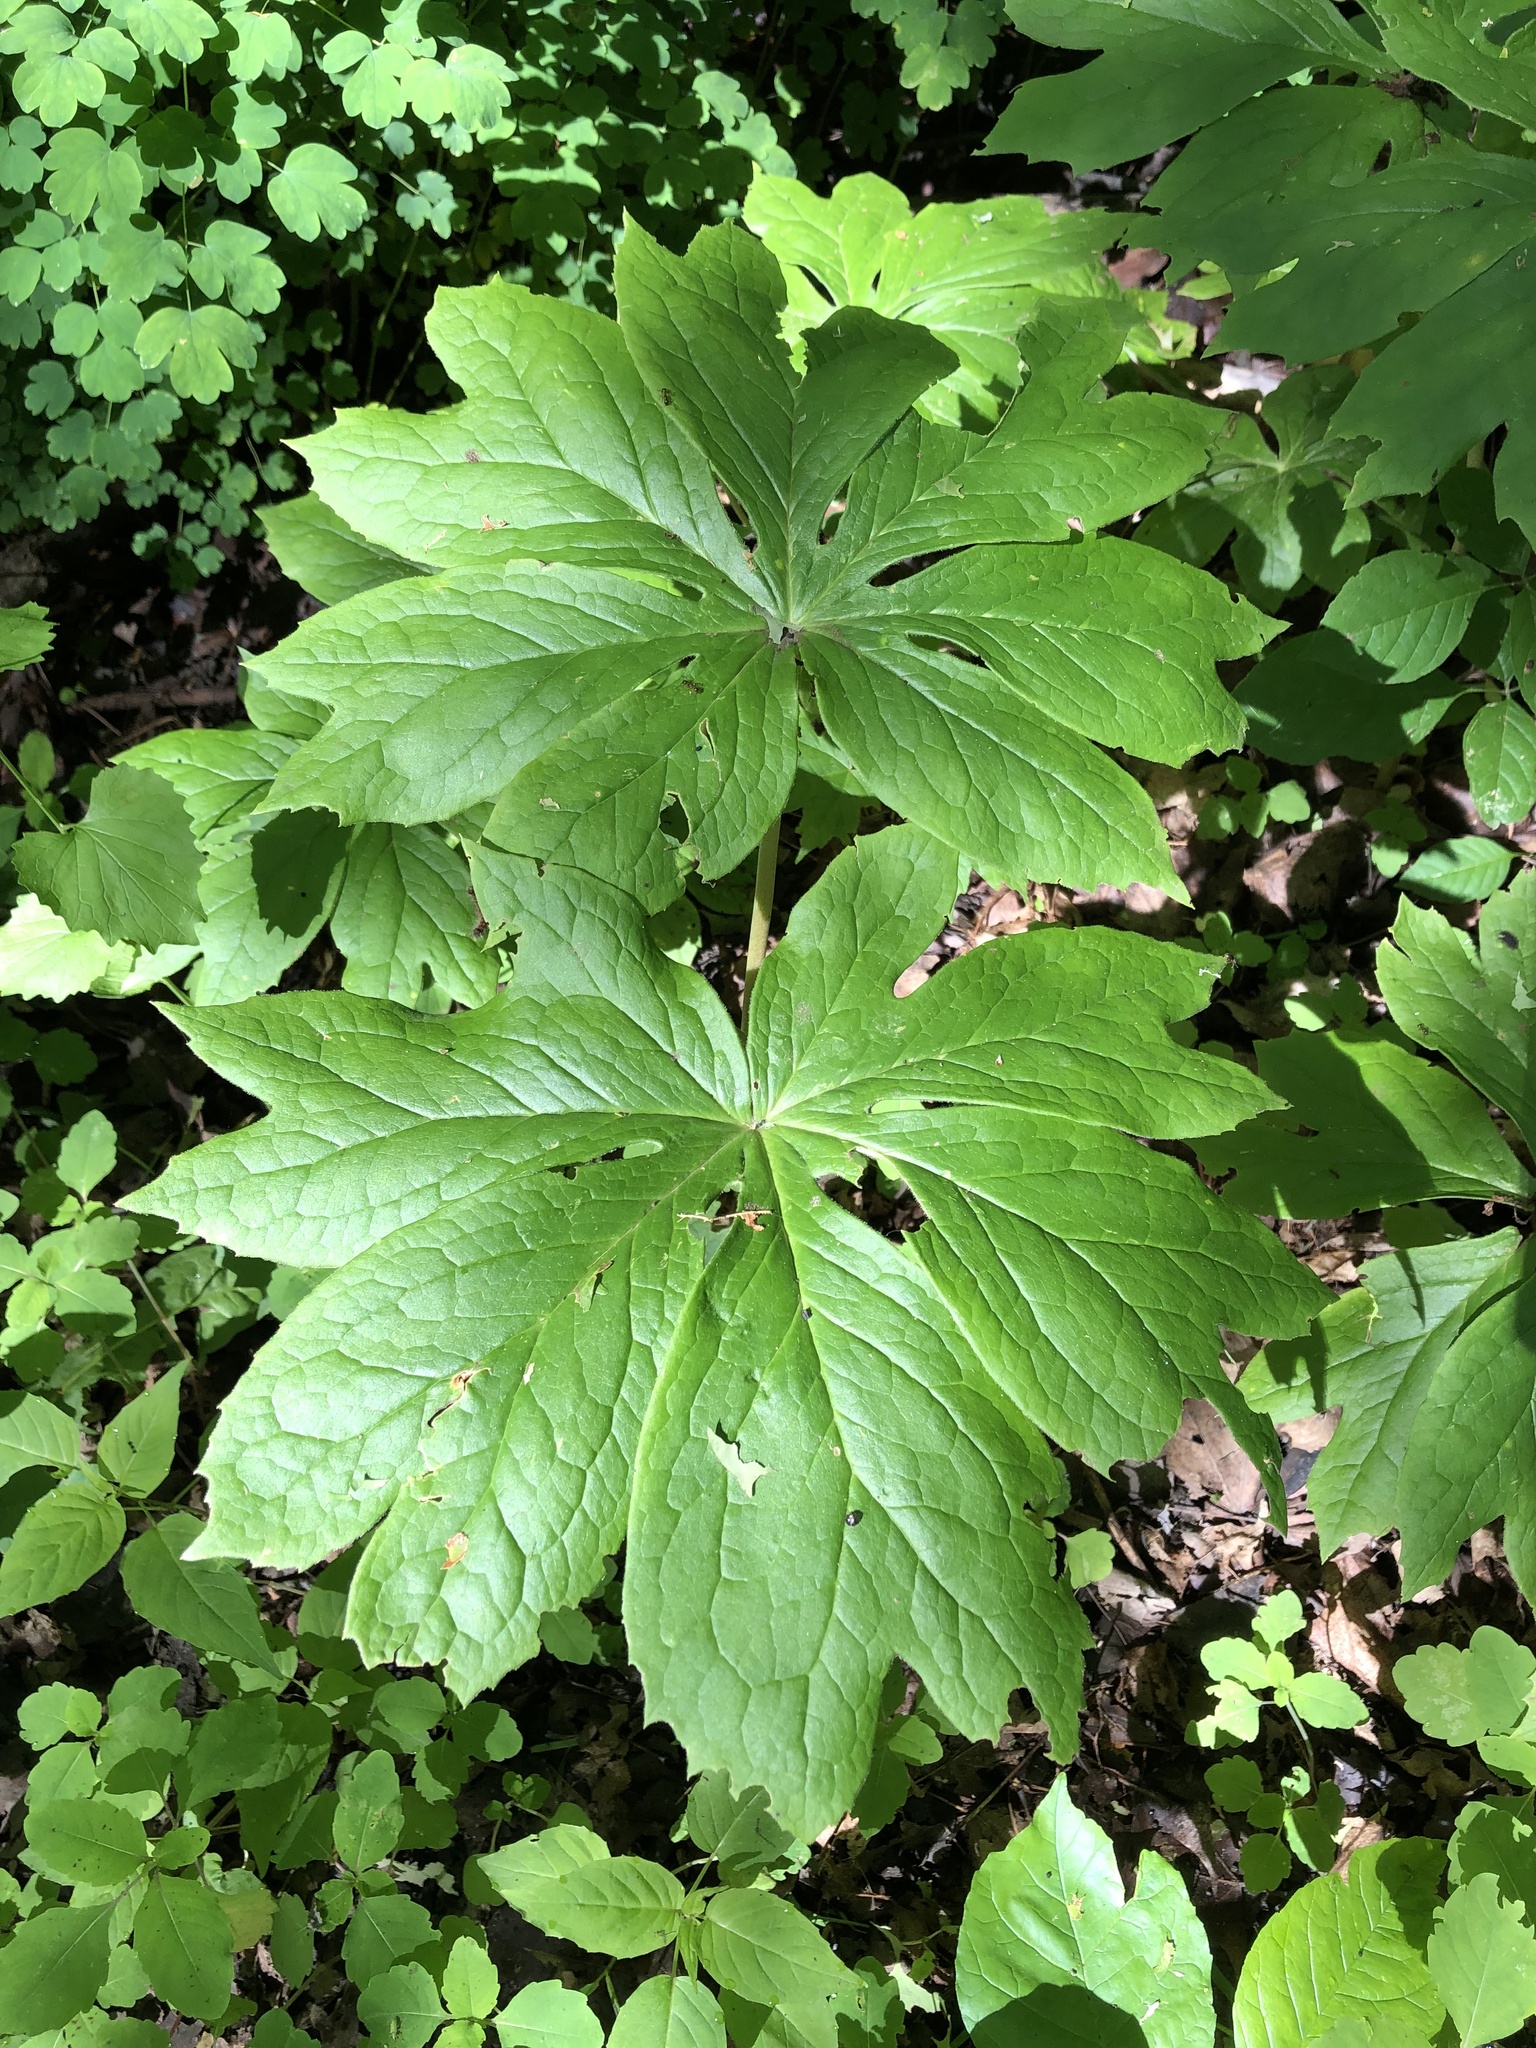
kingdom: Plantae
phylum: Tracheophyta
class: Magnoliopsida
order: Ranunculales
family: Berberidaceae
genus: Podophyllum
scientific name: Podophyllum peltatum
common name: Wild mandrake
